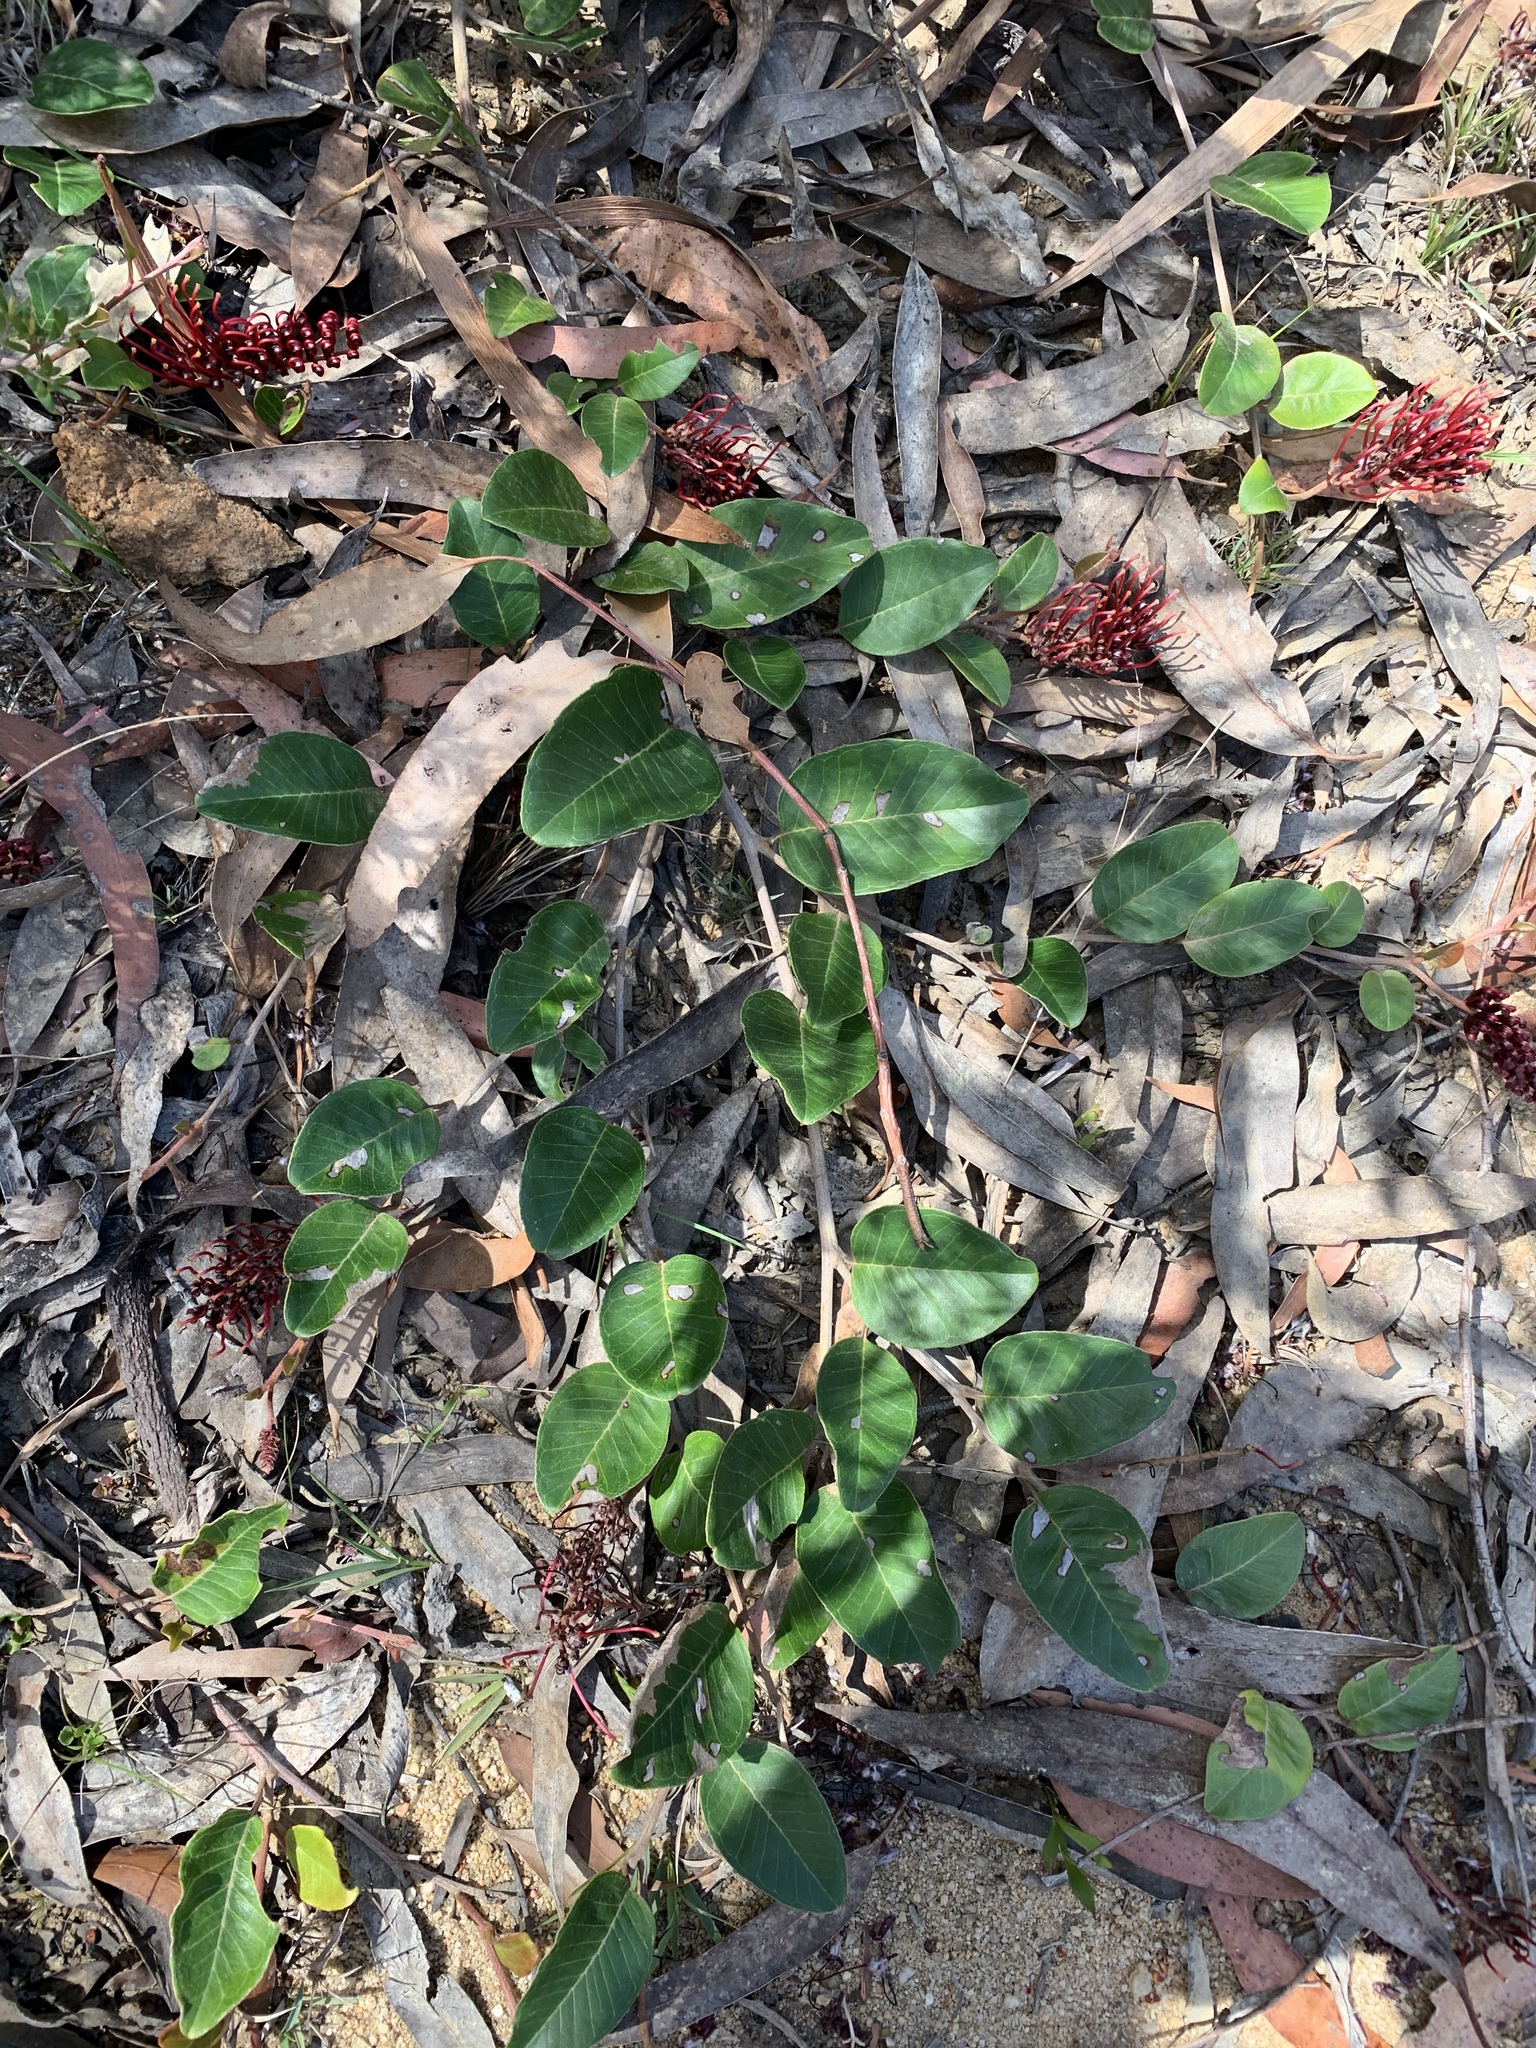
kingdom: Plantae
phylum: Tracheophyta
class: Magnoliopsida
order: Proteales
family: Proteaceae
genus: Grevillea
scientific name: Grevillea laurifolia
